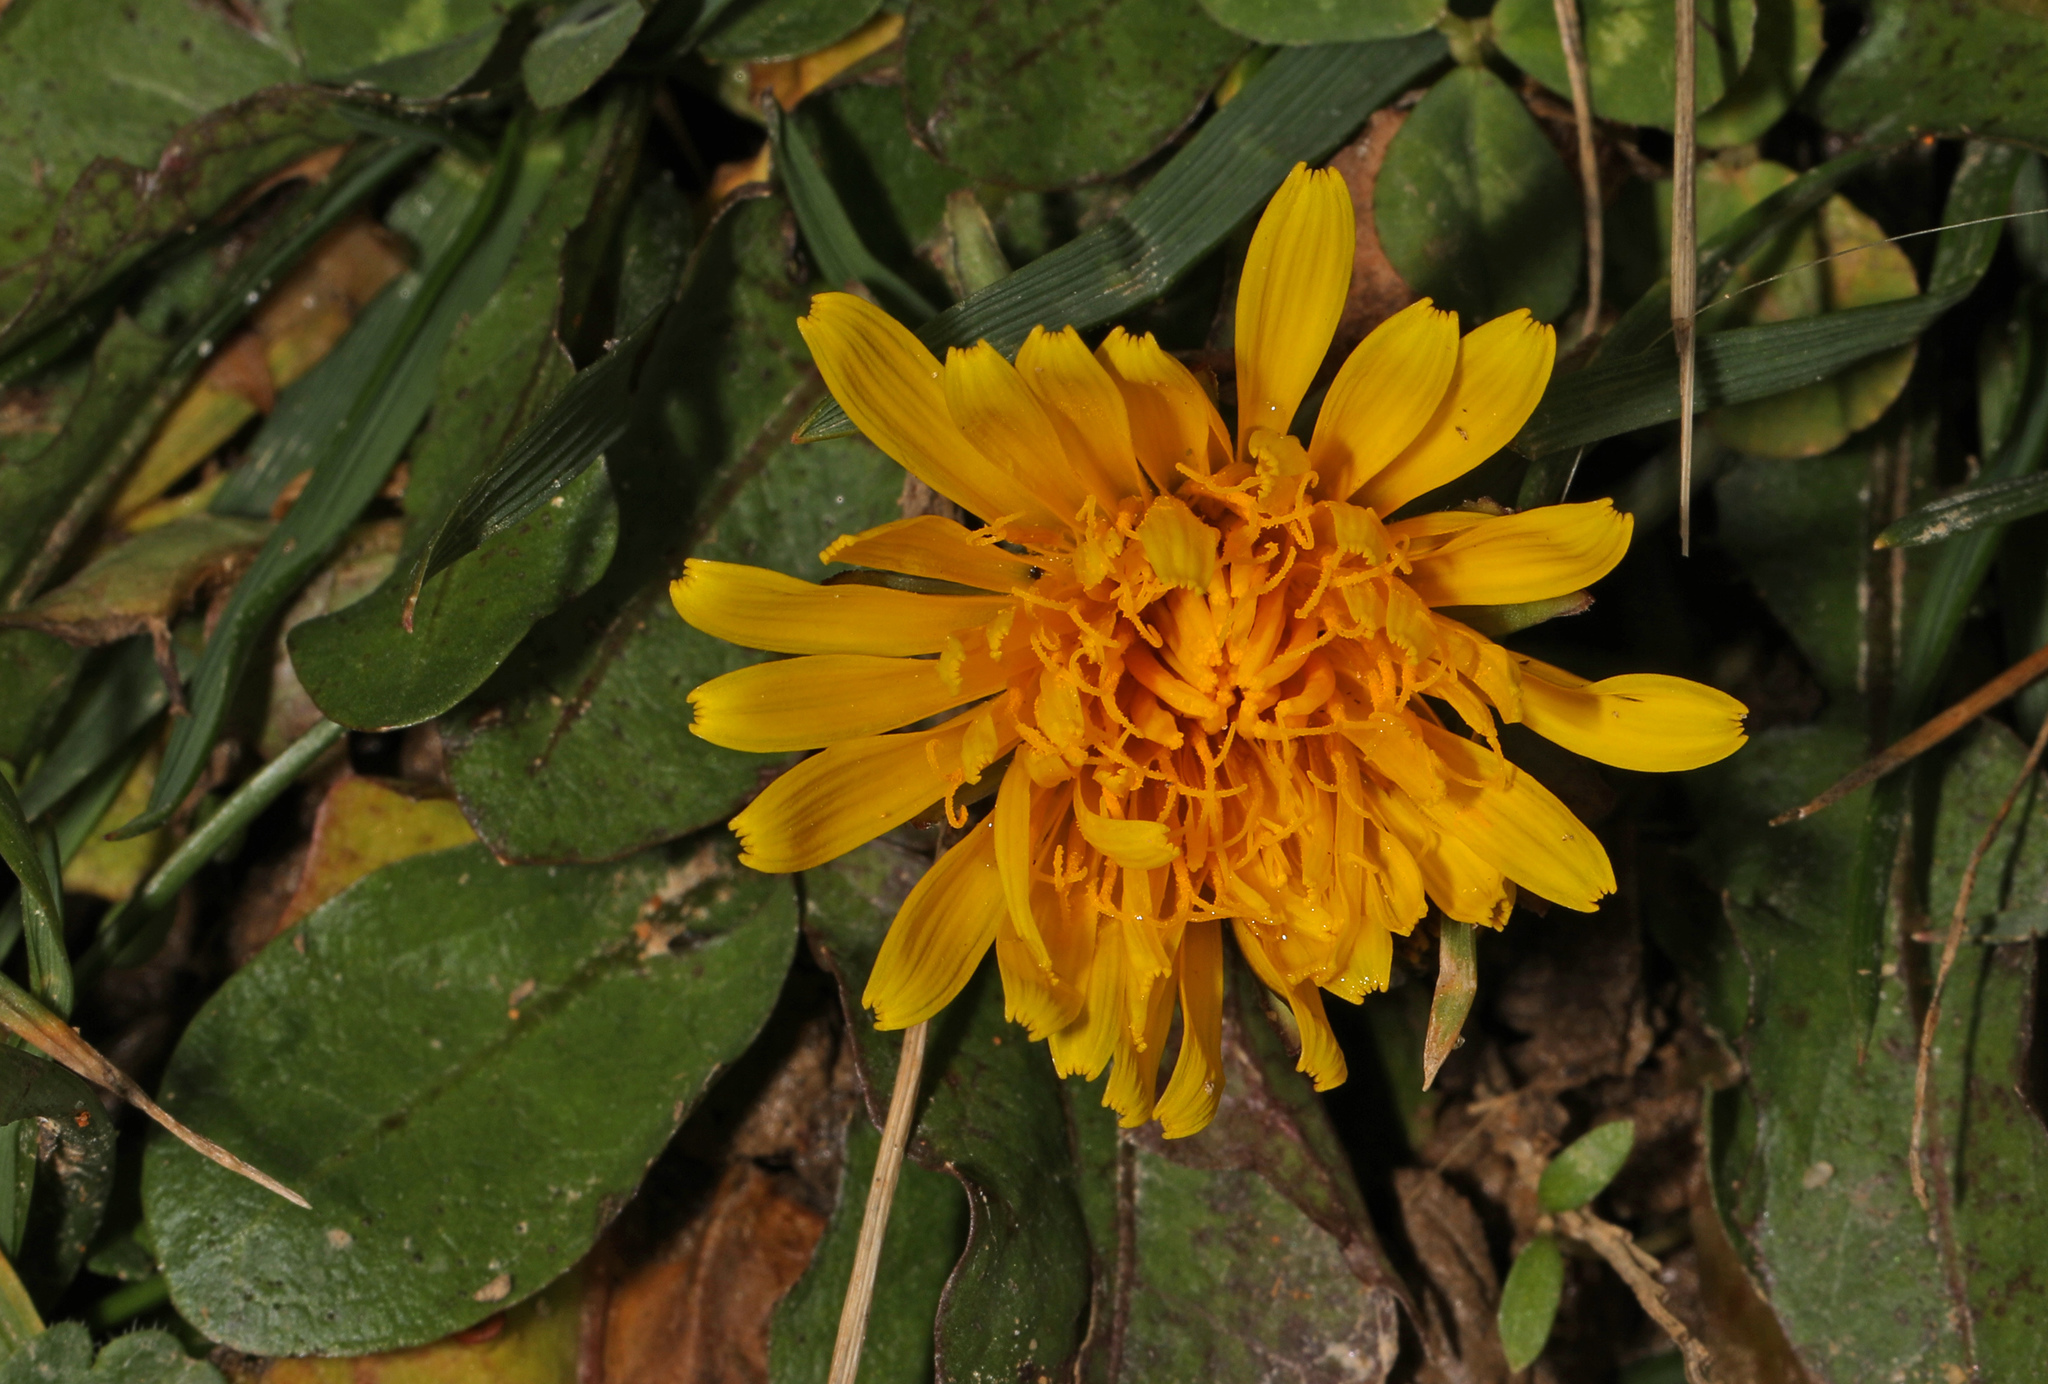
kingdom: Plantae
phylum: Tracheophyta
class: Magnoliopsida
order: Asterales
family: Asteraceae
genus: Taraxacum
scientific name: Taraxacum officinale
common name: Common dandelion
